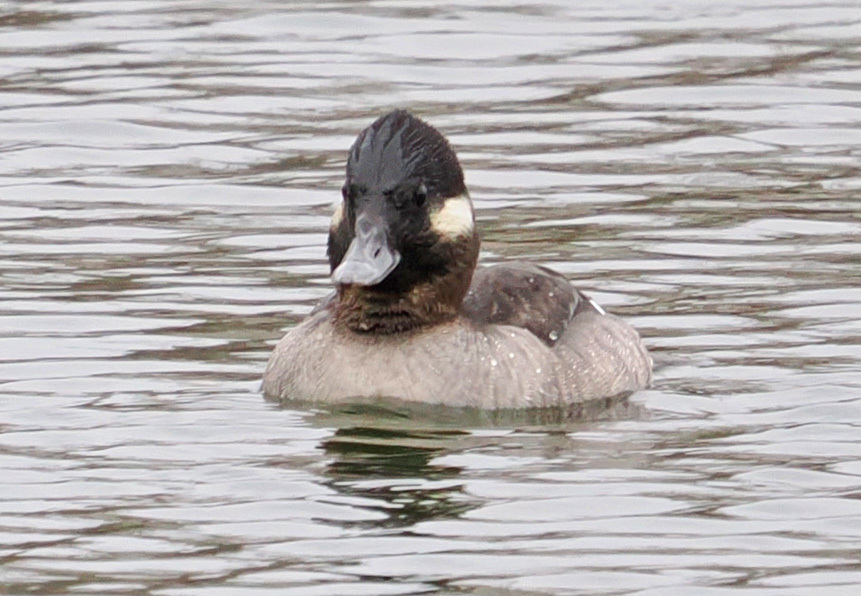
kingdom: Animalia
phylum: Chordata
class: Aves
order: Anseriformes
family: Anatidae
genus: Bucephala
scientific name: Bucephala albeola
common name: Bufflehead
